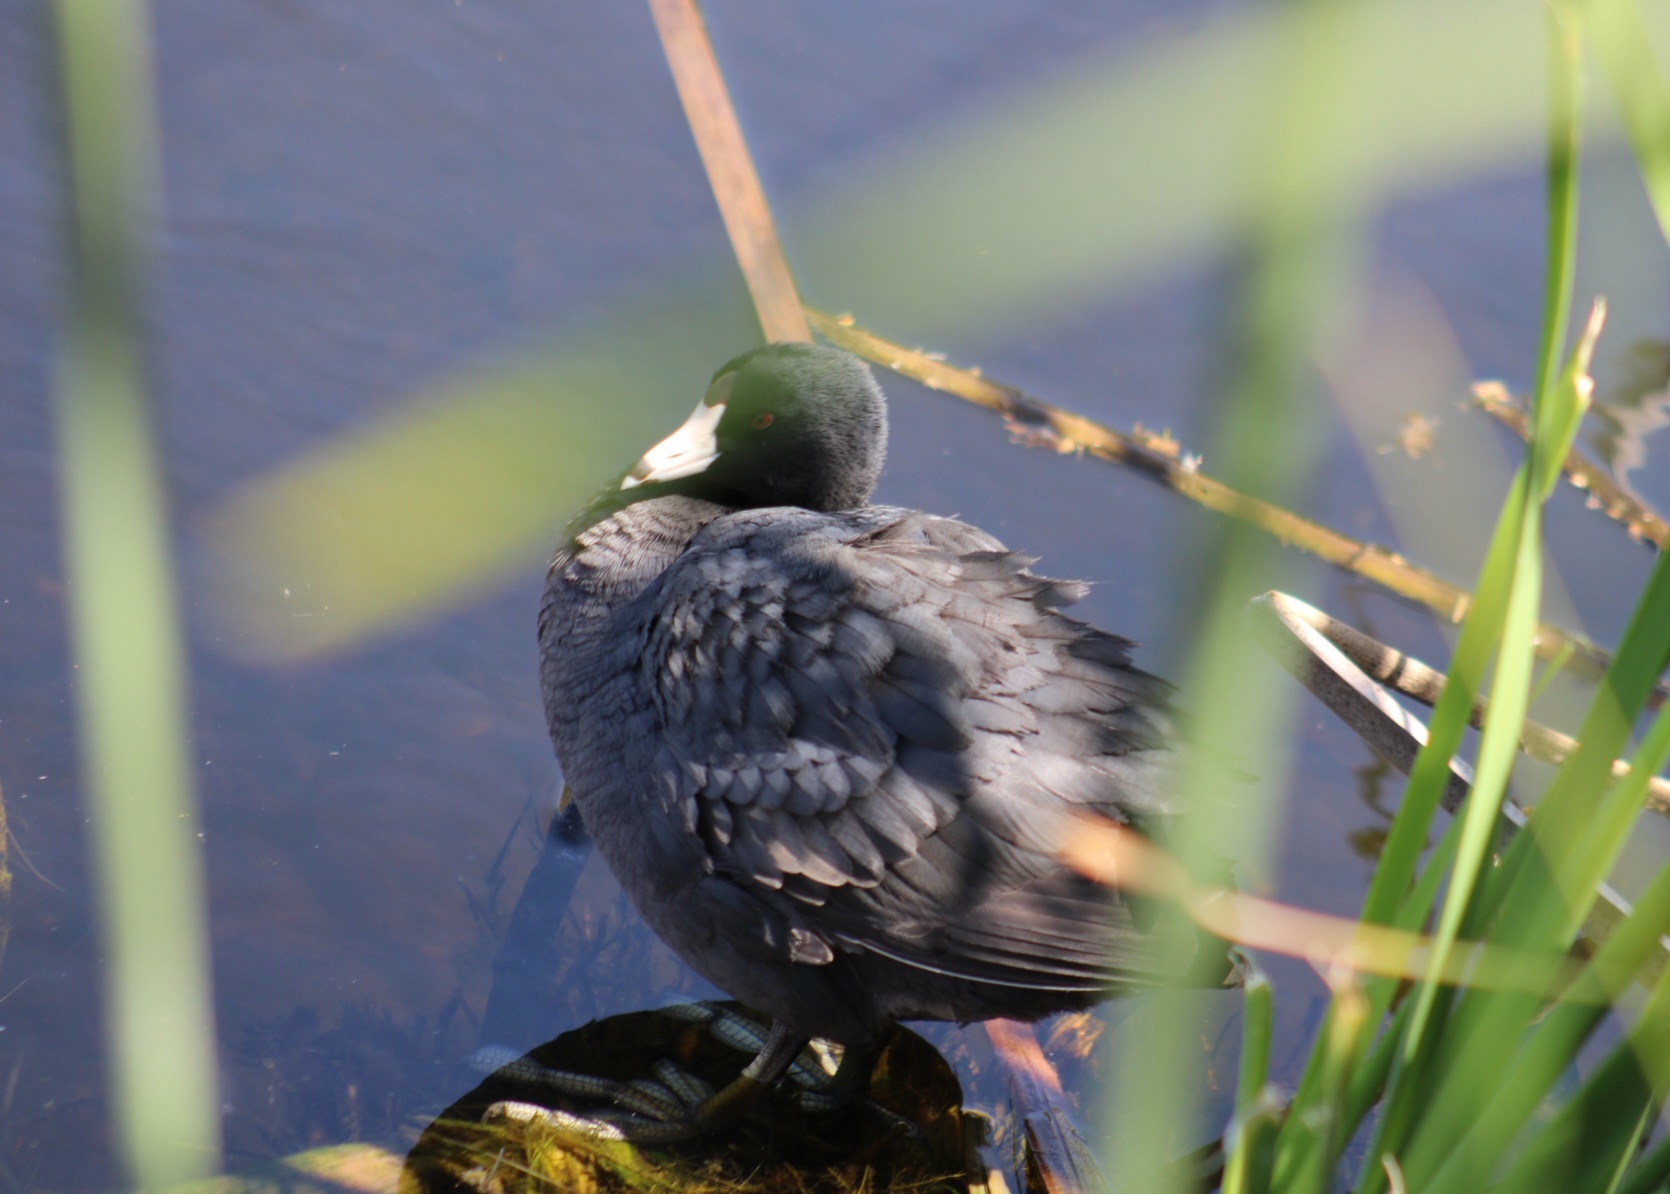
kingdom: Animalia
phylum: Chordata
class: Aves
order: Gruiformes
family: Rallidae
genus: Fulica
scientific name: Fulica americana
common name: American coot
